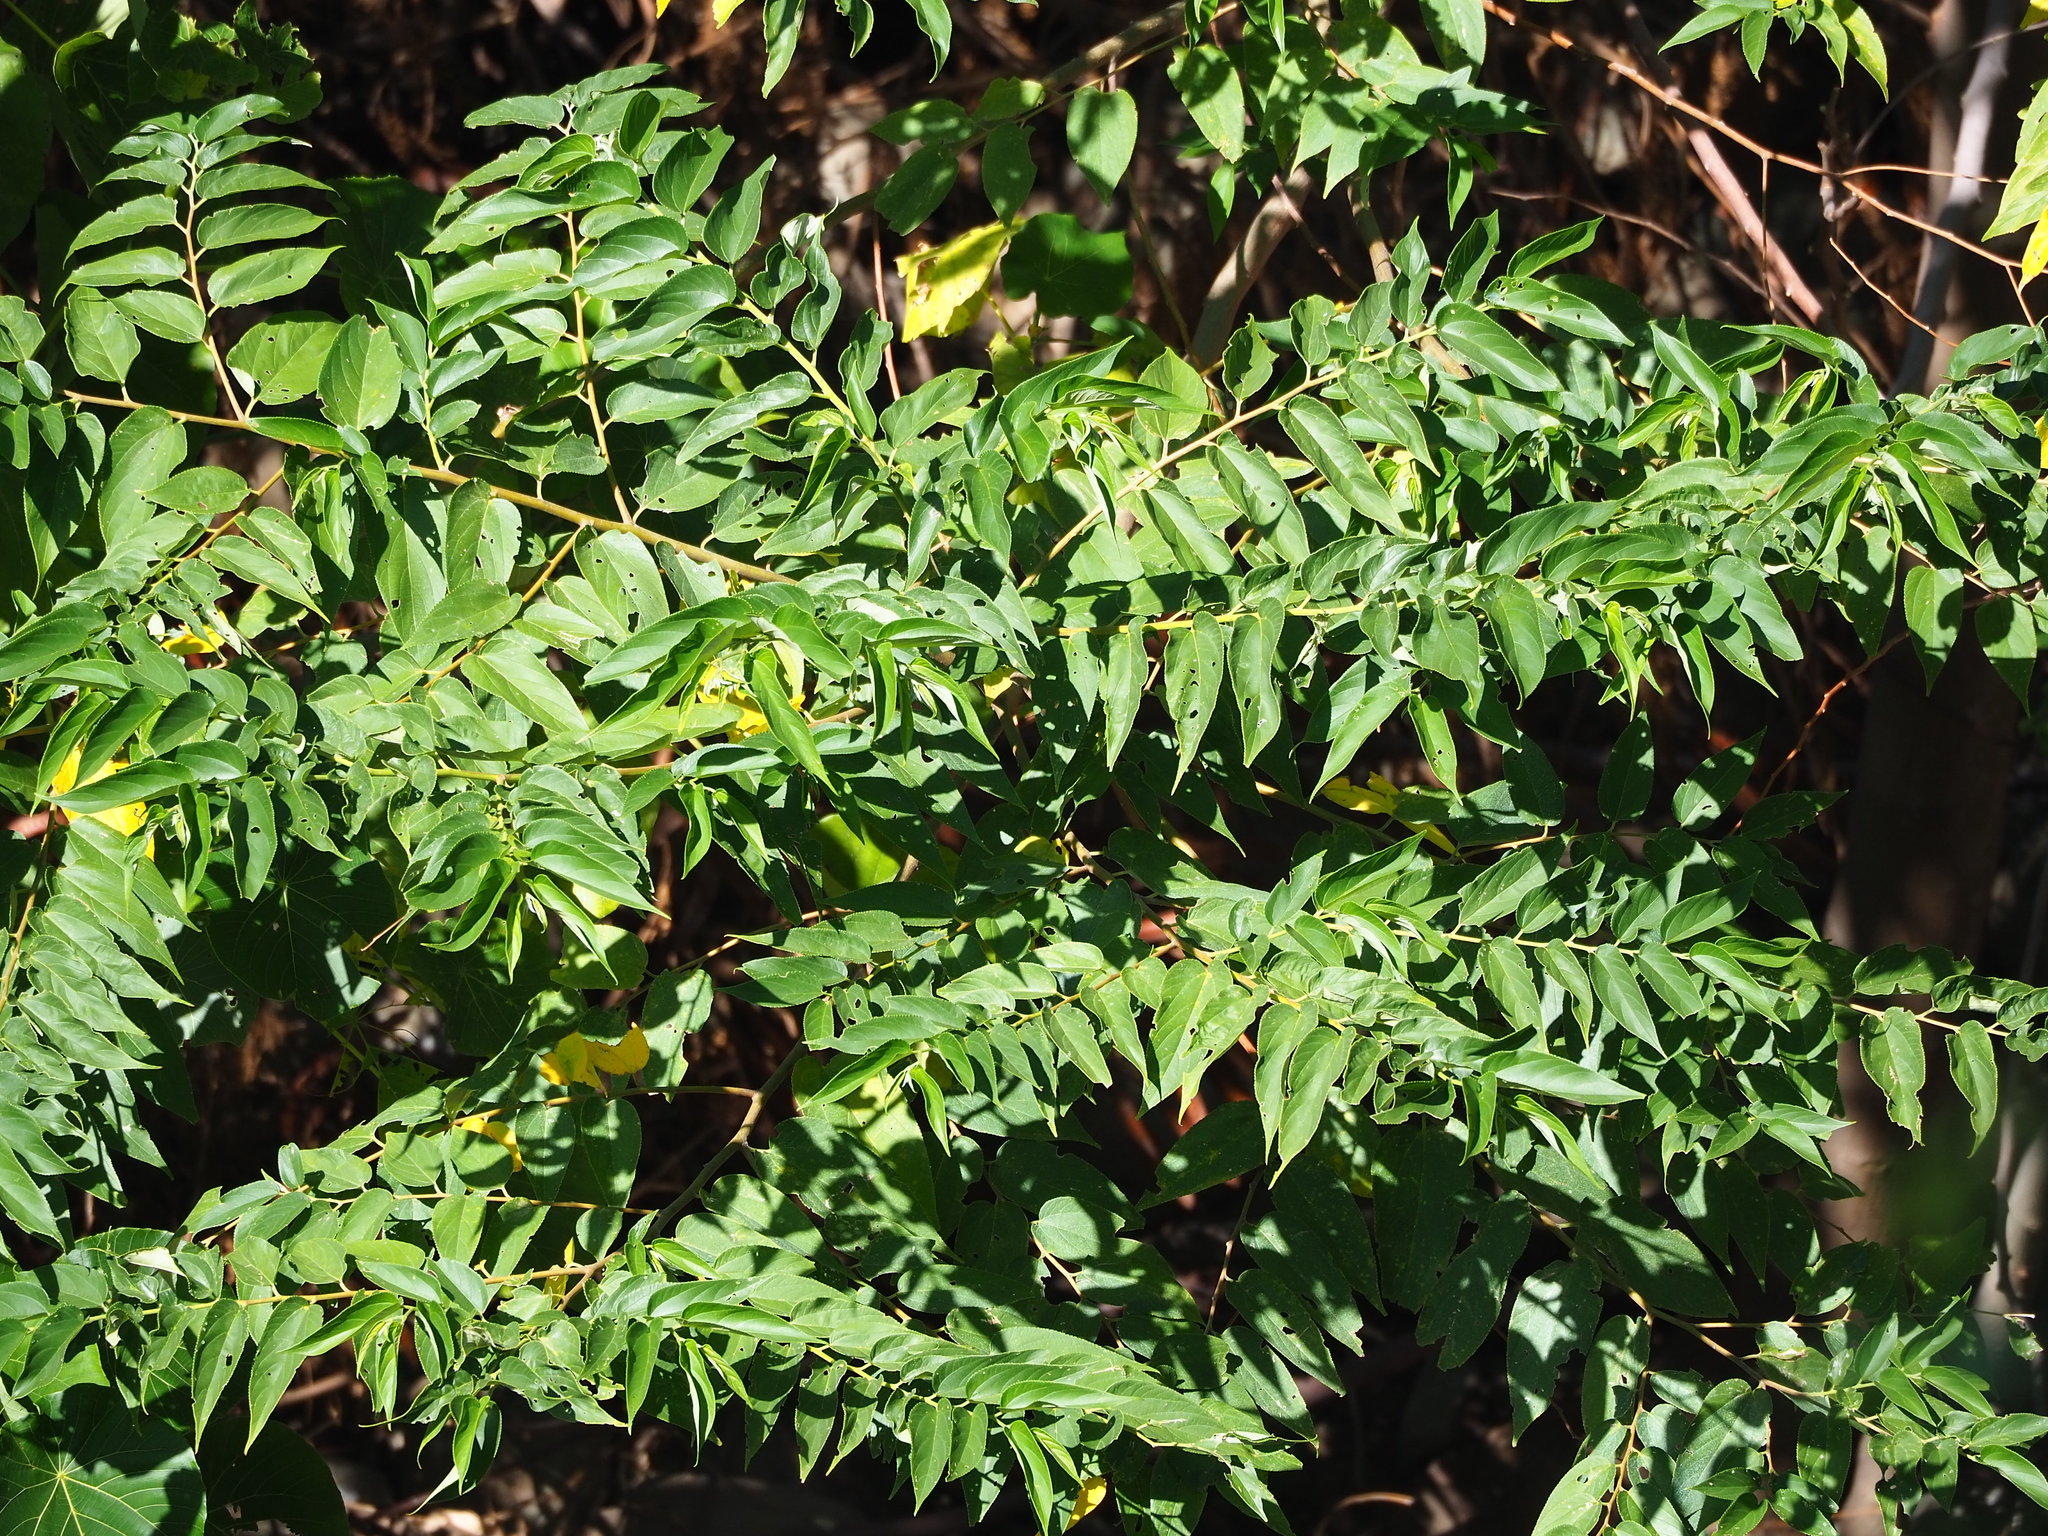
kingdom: Plantae
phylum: Tracheophyta
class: Magnoliopsida
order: Rosales
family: Cannabaceae
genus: Trema
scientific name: Trema orientale
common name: Indian charcoal tree
